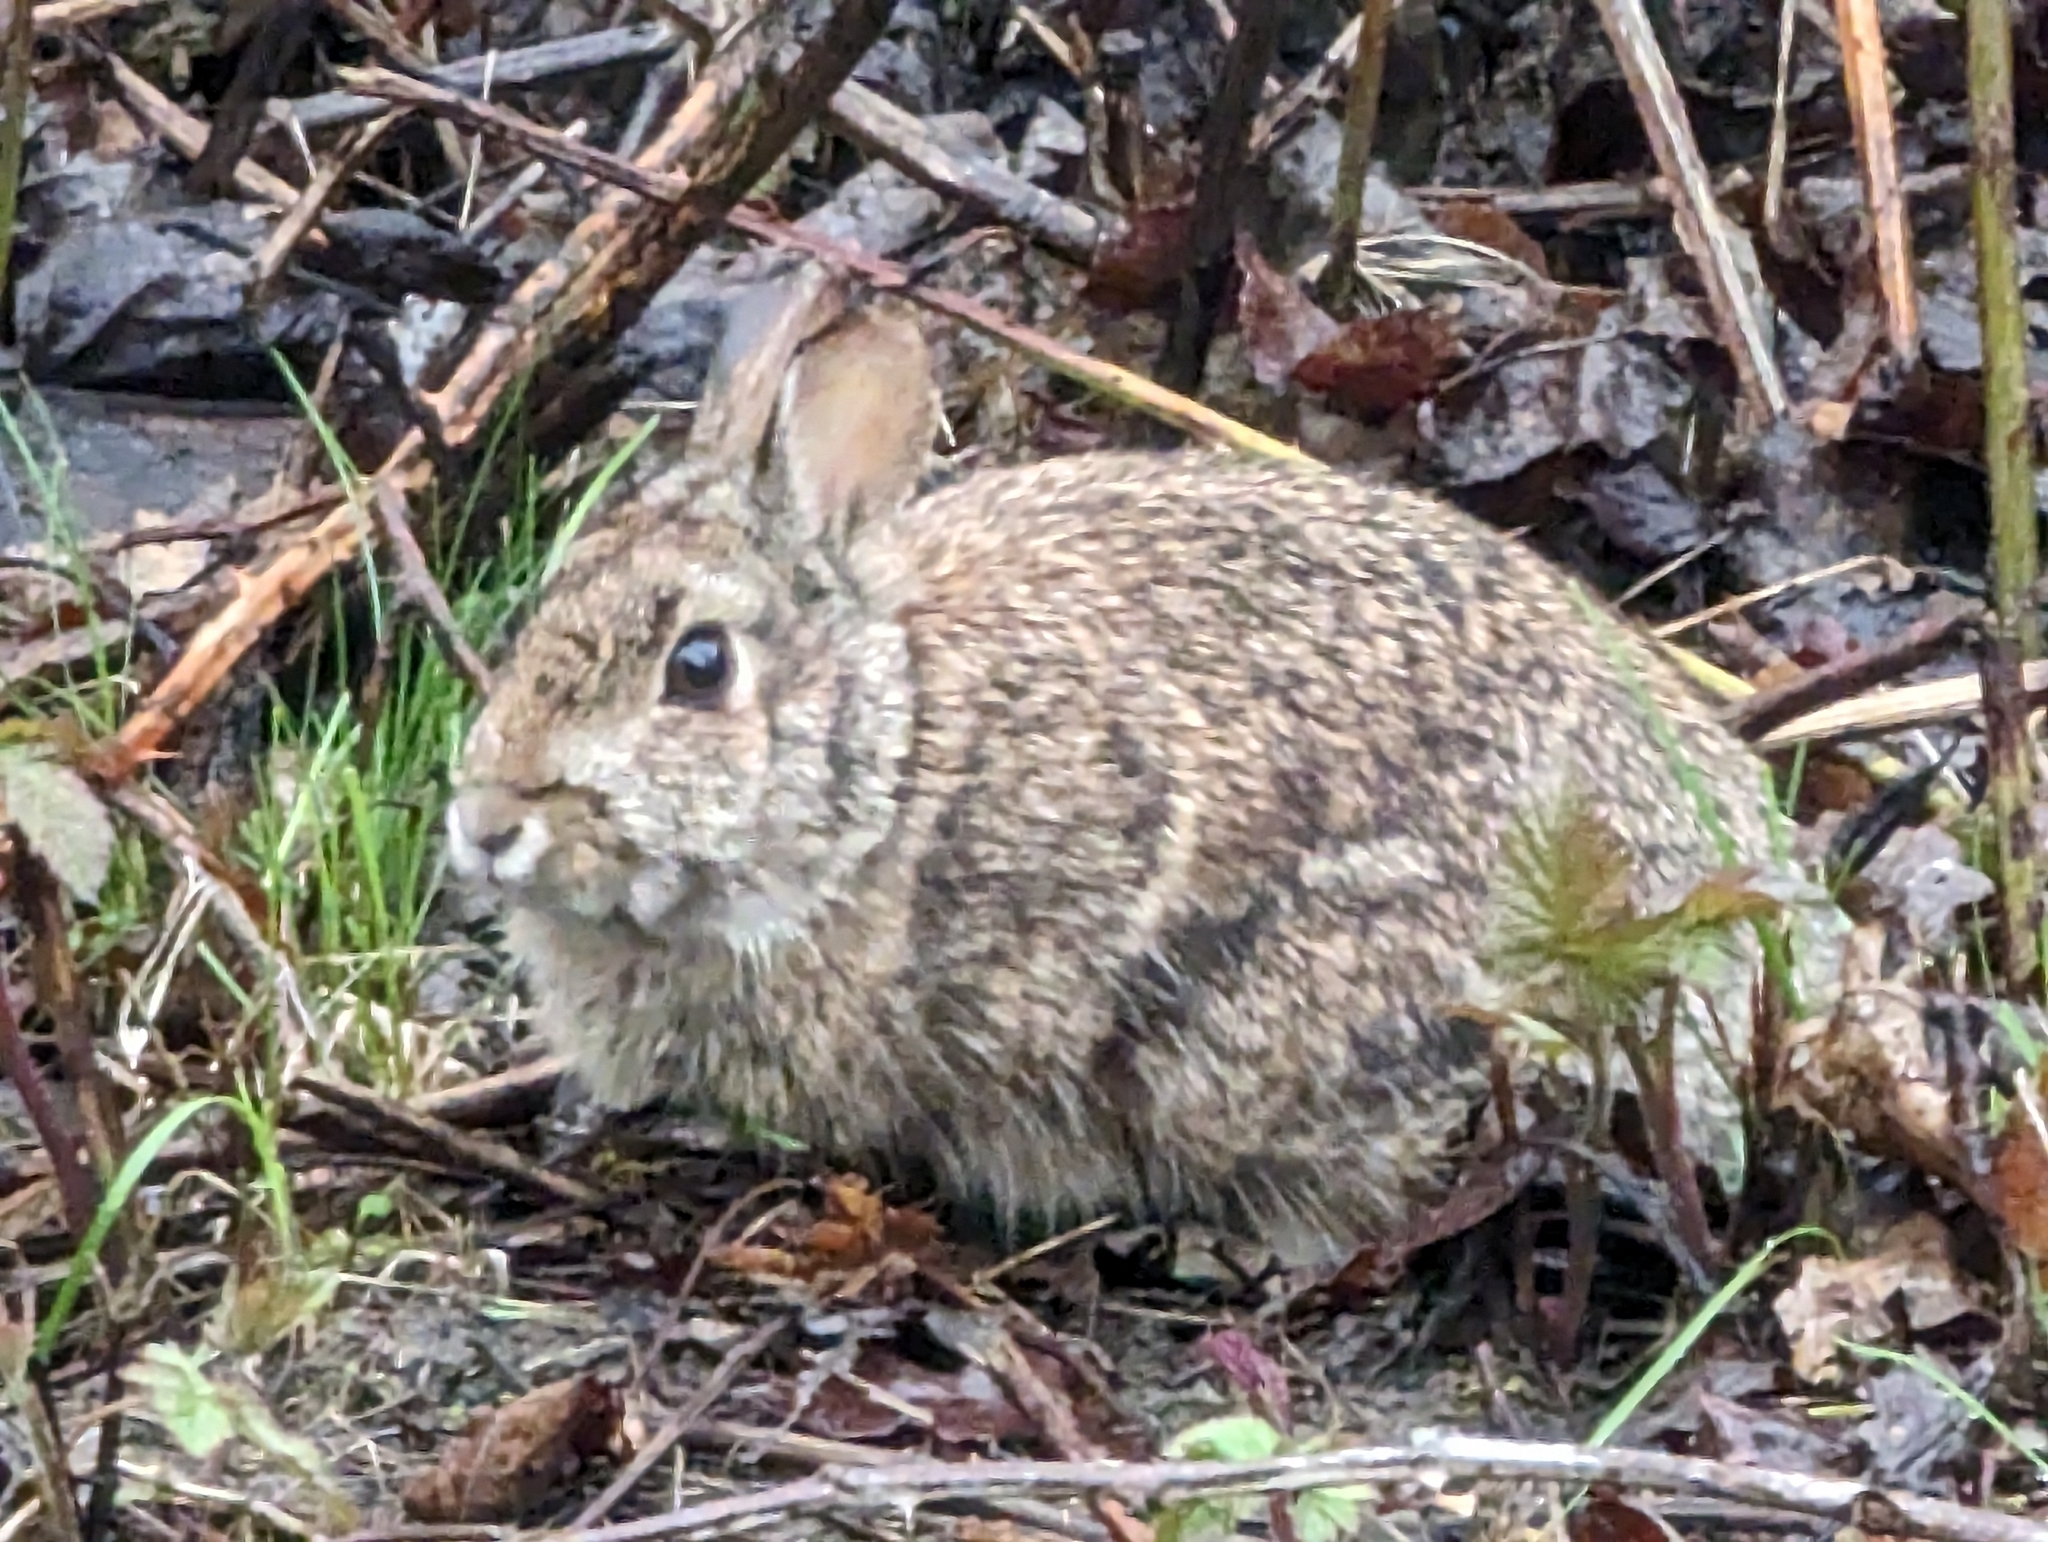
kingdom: Animalia
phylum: Chordata
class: Mammalia
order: Lagomorpha
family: Leporidae
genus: Sylvilagus
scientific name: Sylvilagus floridanus
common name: Eastern cottontail
